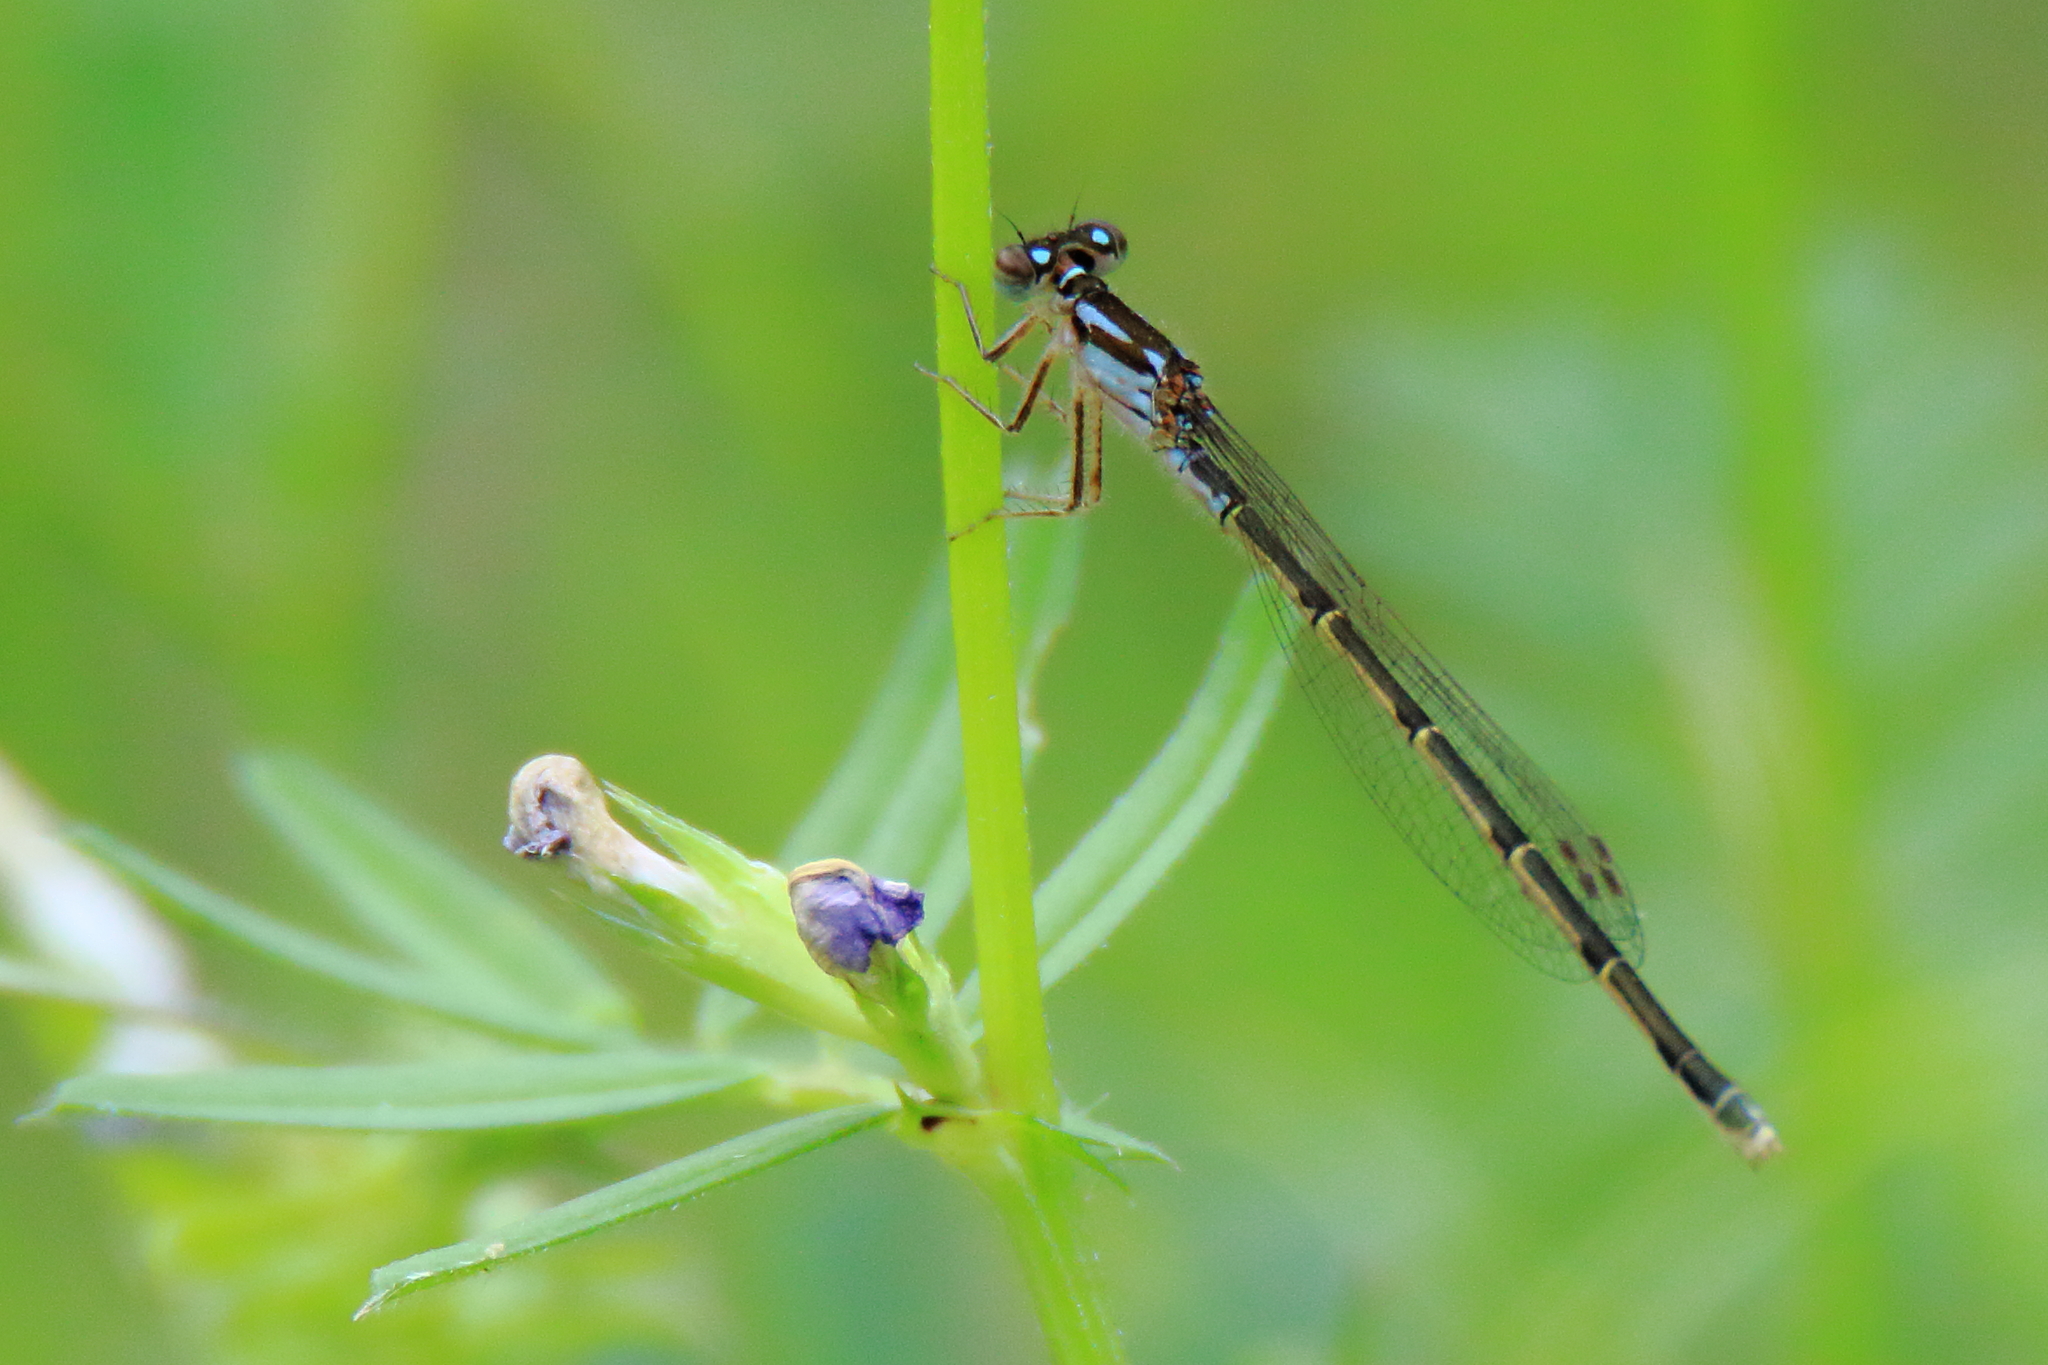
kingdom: Animalia
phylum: Arthropoda
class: Insecta
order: Odonata
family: Coenagrionidae
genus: Ischnura
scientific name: Ischnura posita
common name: Fragile forktail
